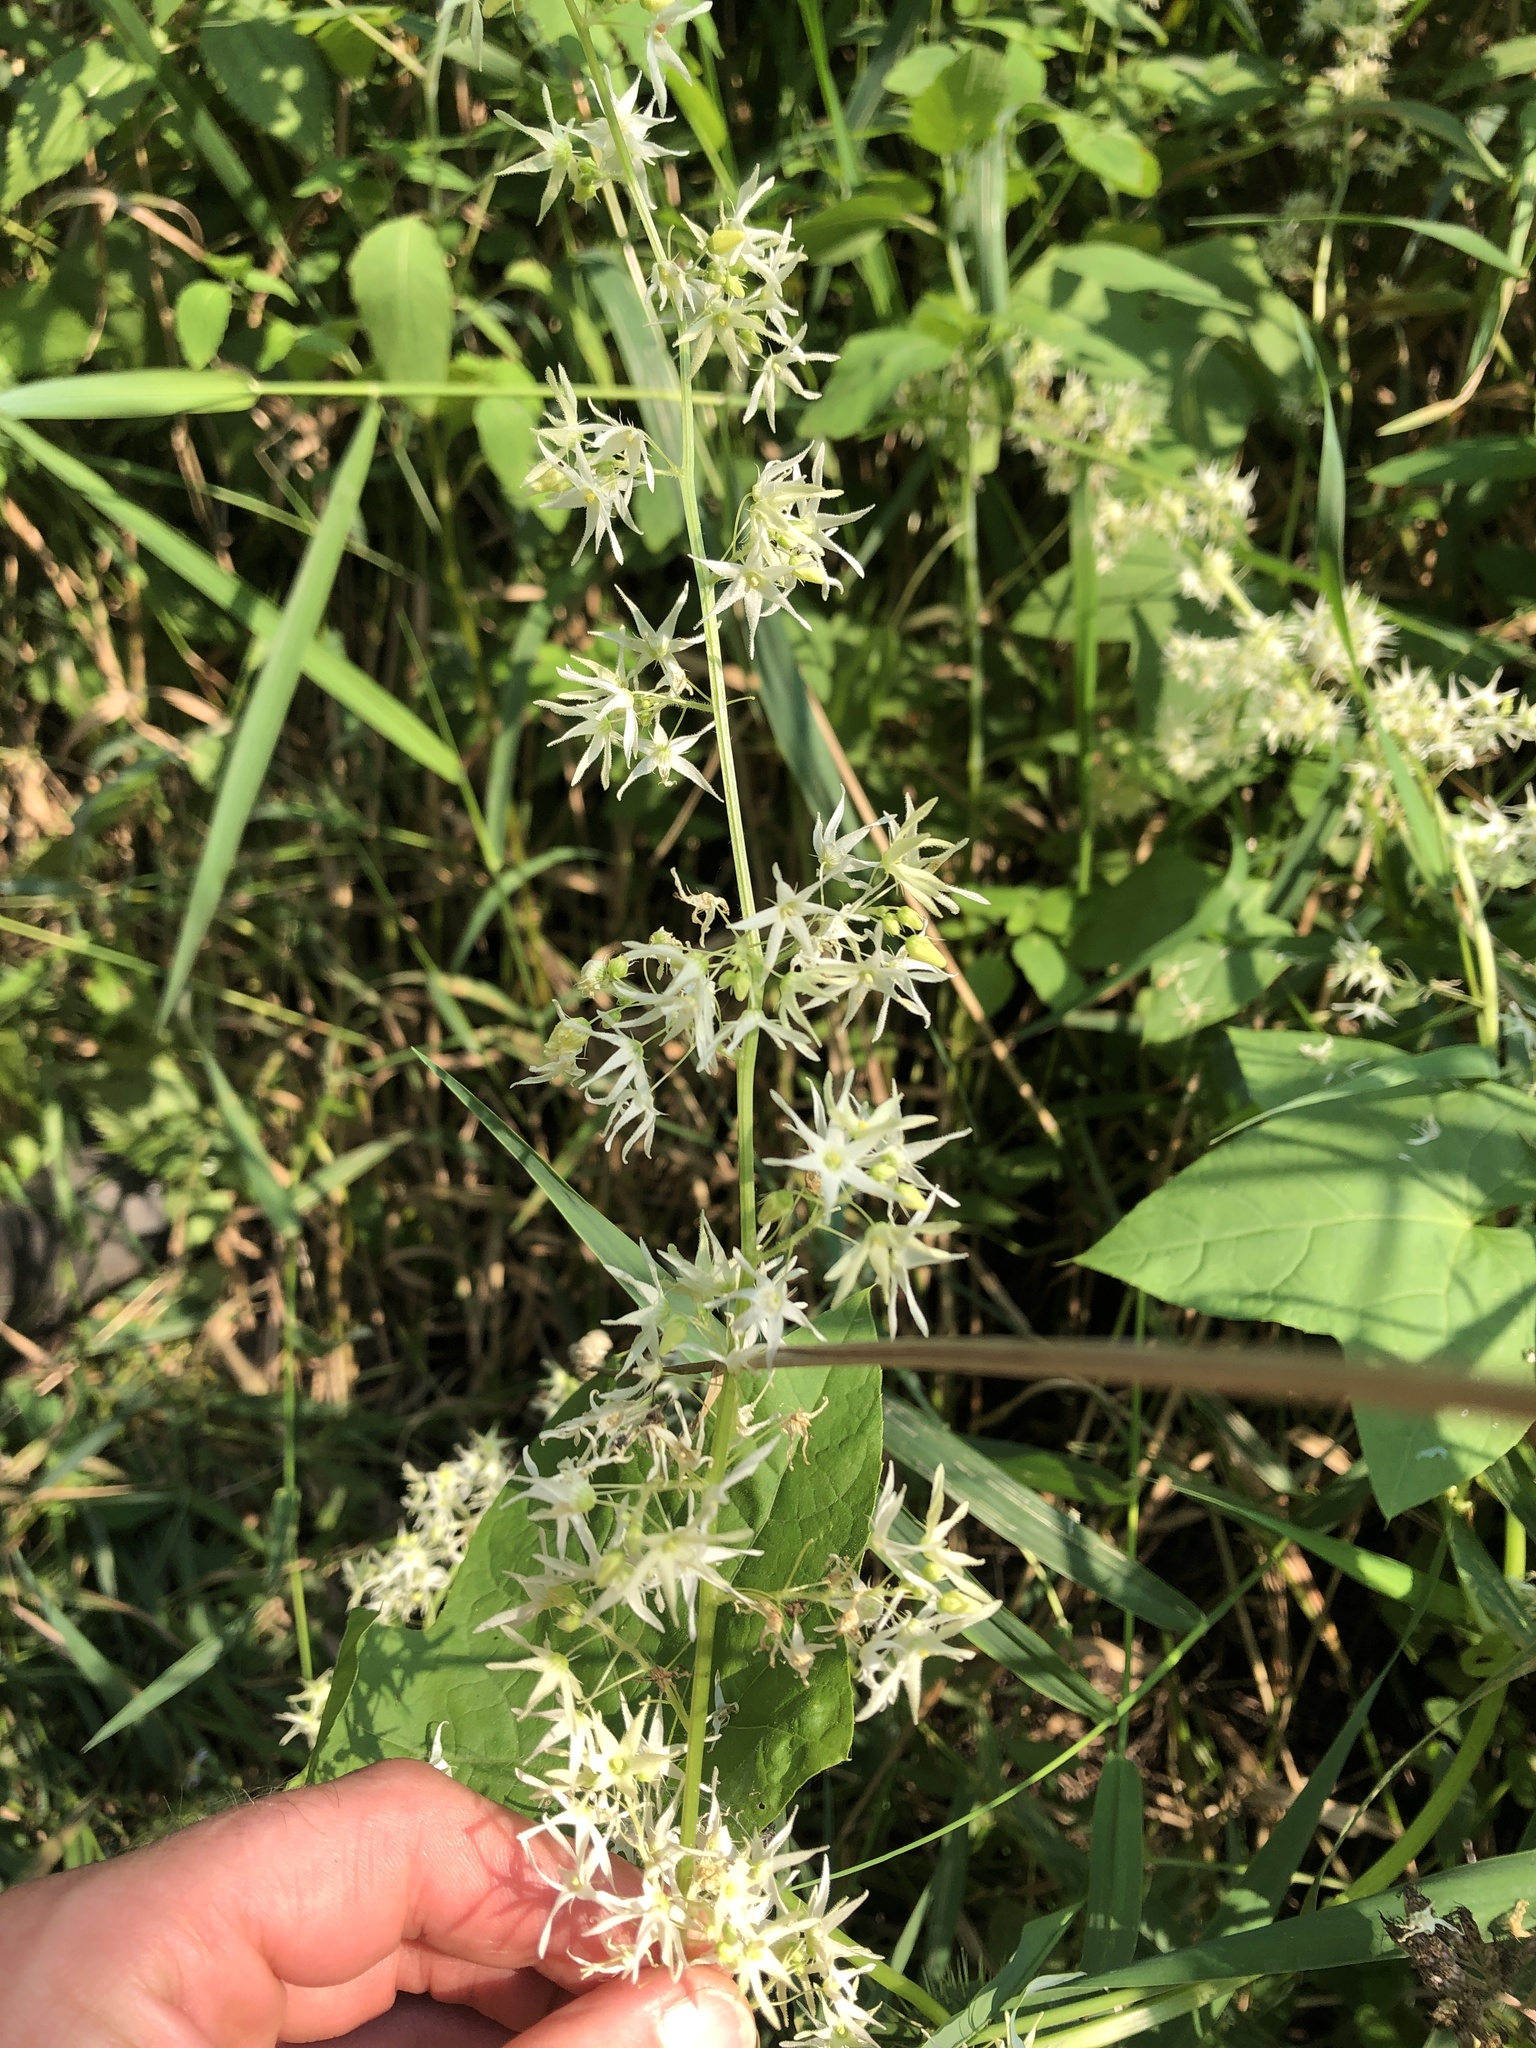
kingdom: Plantae
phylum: Tracheophyta
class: Magnoliopsida
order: Cucurbitales
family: Cucurbitaceae
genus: Echinocystis
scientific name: Echinocystis lobata
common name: Wild cucumber
